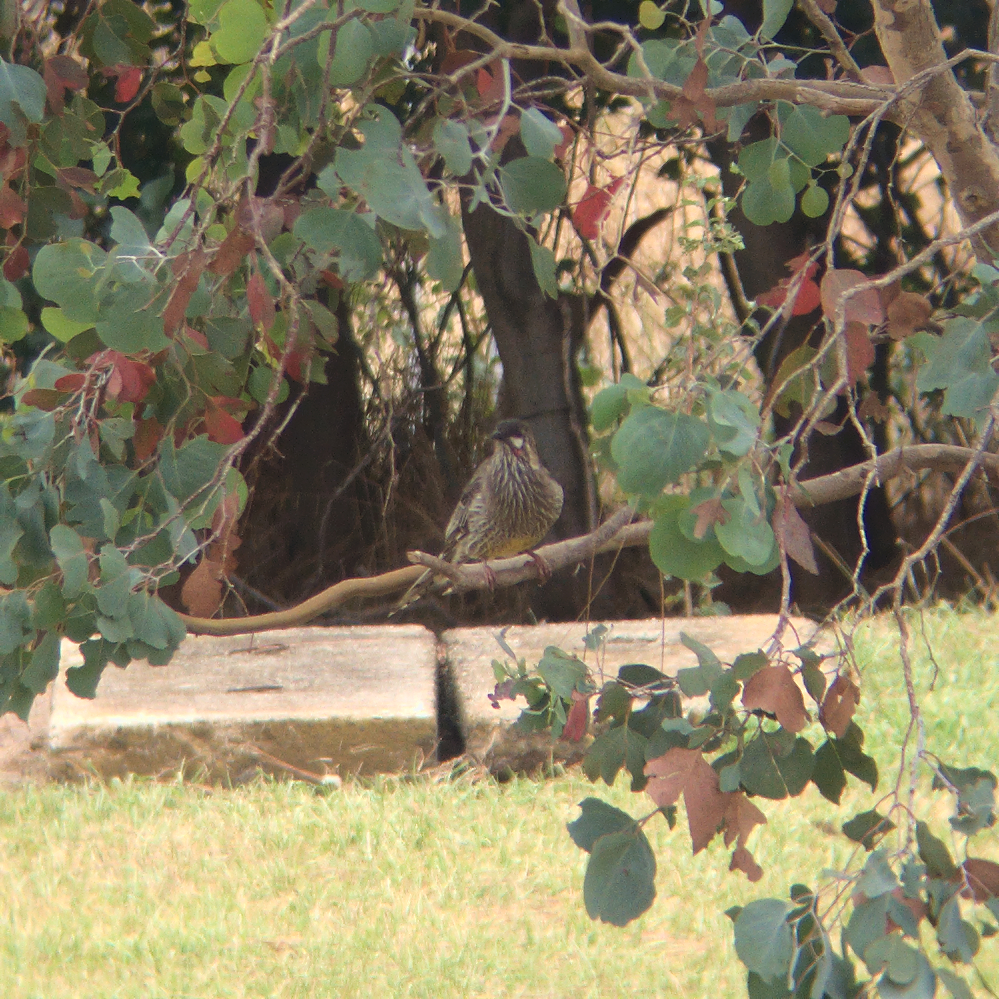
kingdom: Animalia
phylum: Chordata
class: Aves
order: Passeriformes
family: Meliphagidae
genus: Anthochaera
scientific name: Anthochaera carunculata
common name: Red wattlebird
